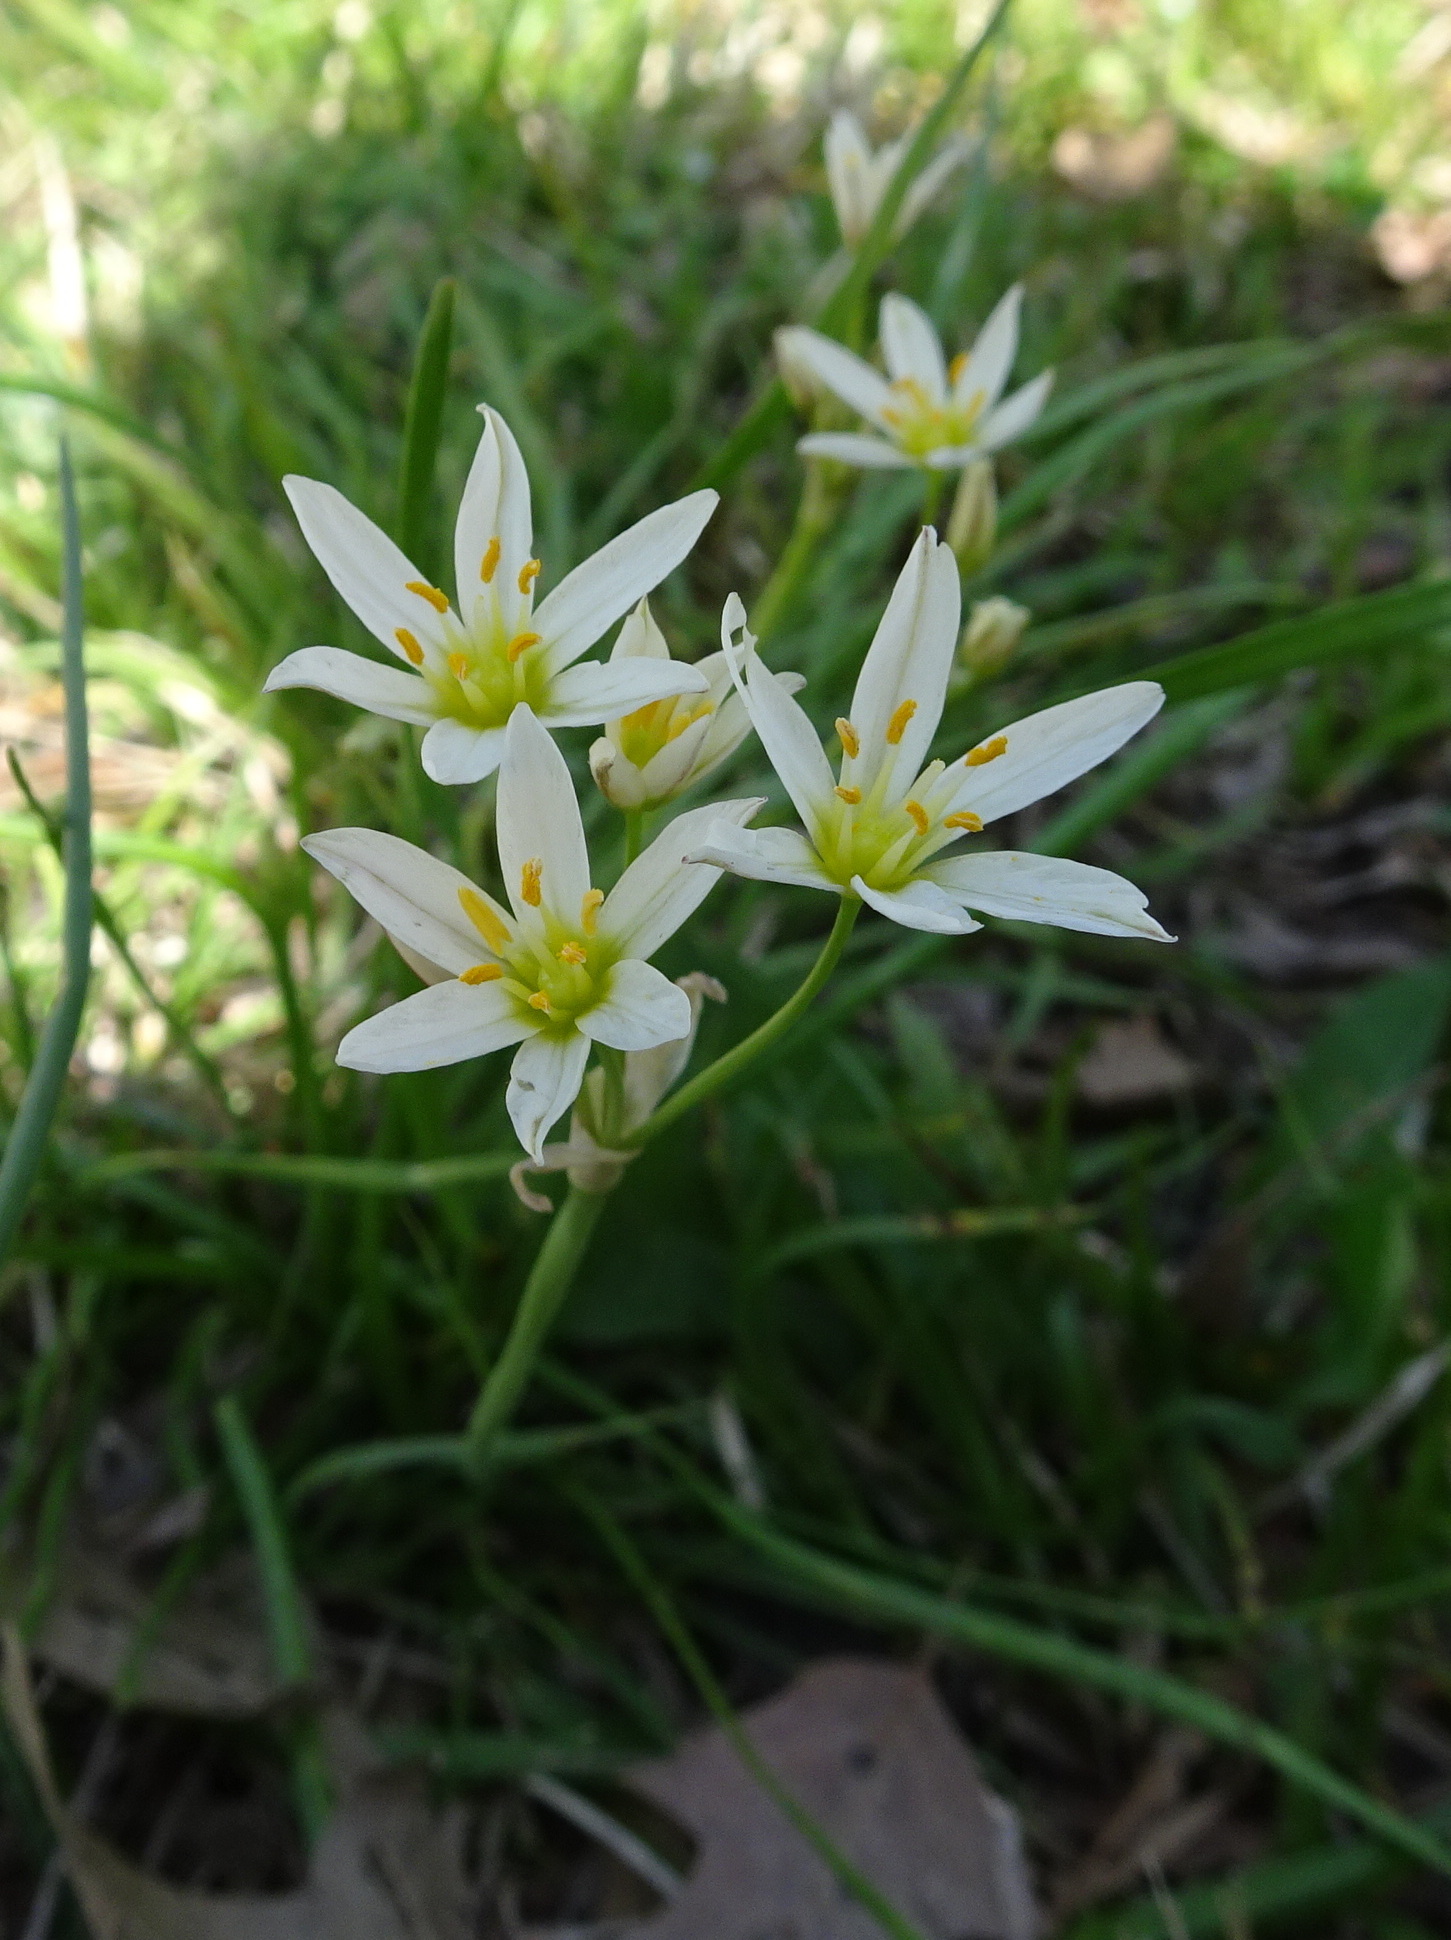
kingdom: Plantae
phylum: Tracheophyta
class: Liliopsida
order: Asparagales
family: Amaryllidaceae
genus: Nothoscordum
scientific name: Nothoscordum bivalve
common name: Crow-poison
